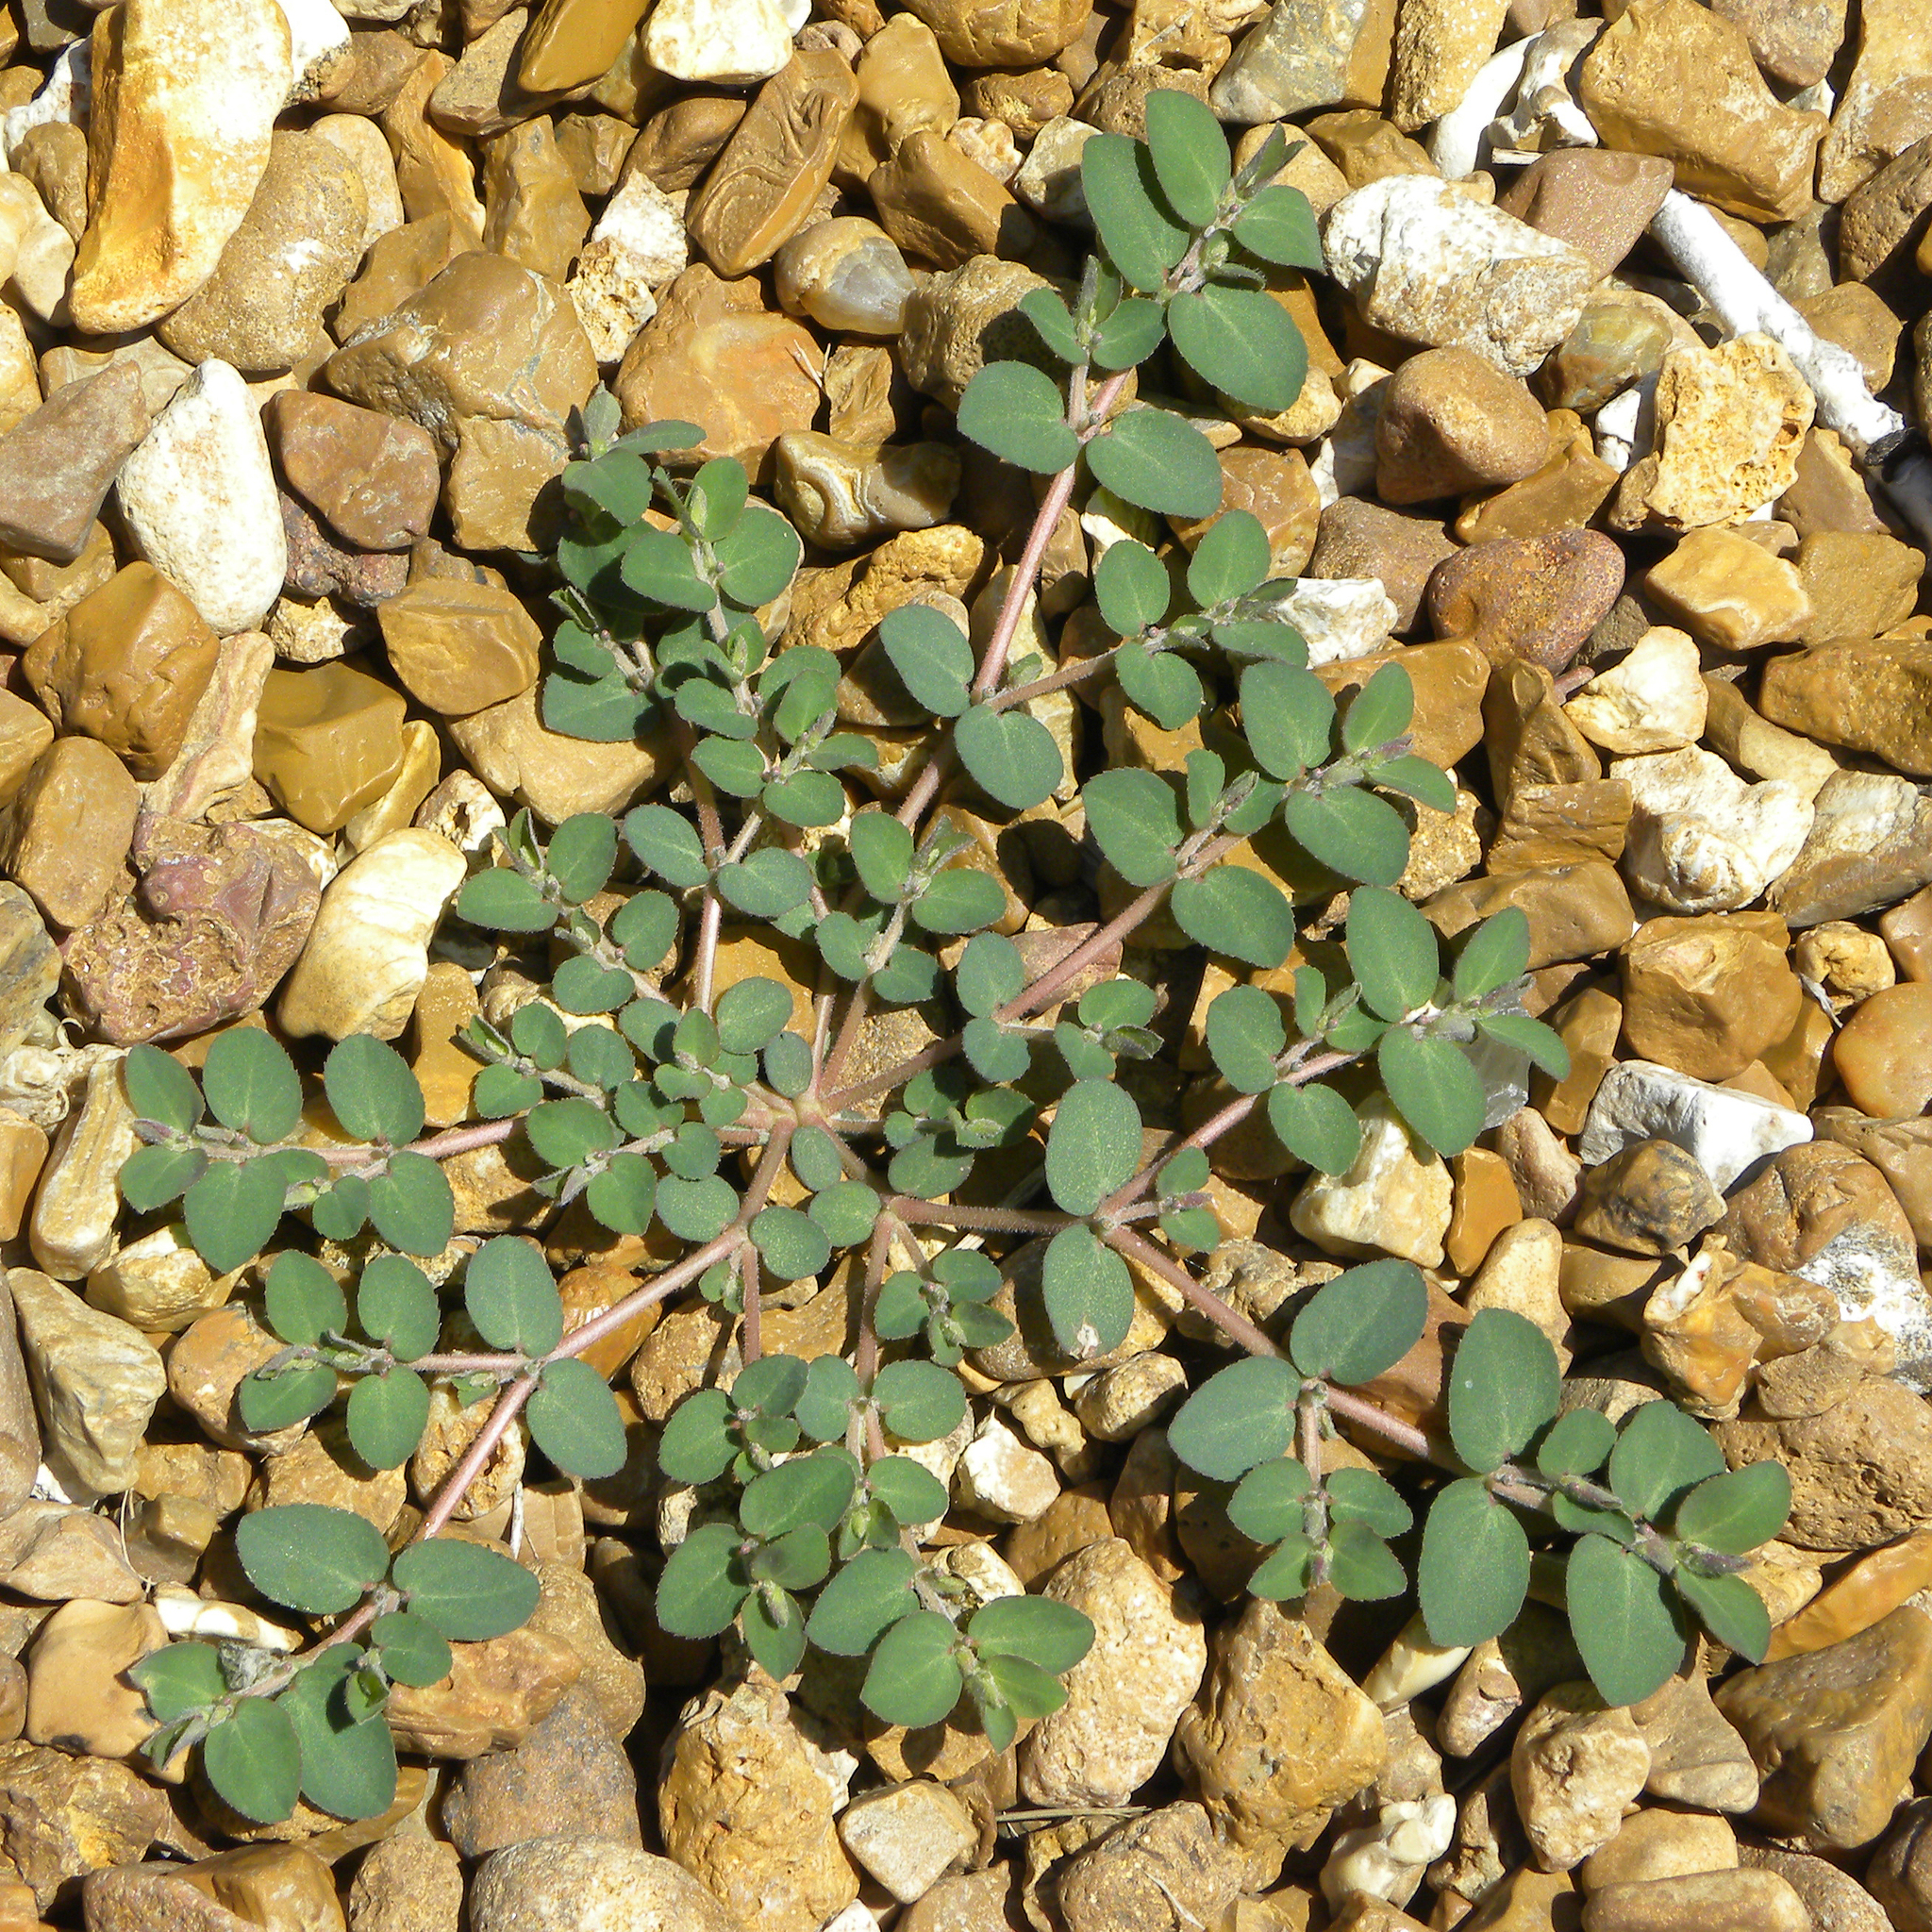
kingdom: Plantae
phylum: Tracheophyta
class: Magnoliopsida
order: Malpighiales
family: Euphorbiaceae
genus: Euphorbia
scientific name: Euphorbia prostrata
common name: Prostrate sandmat
